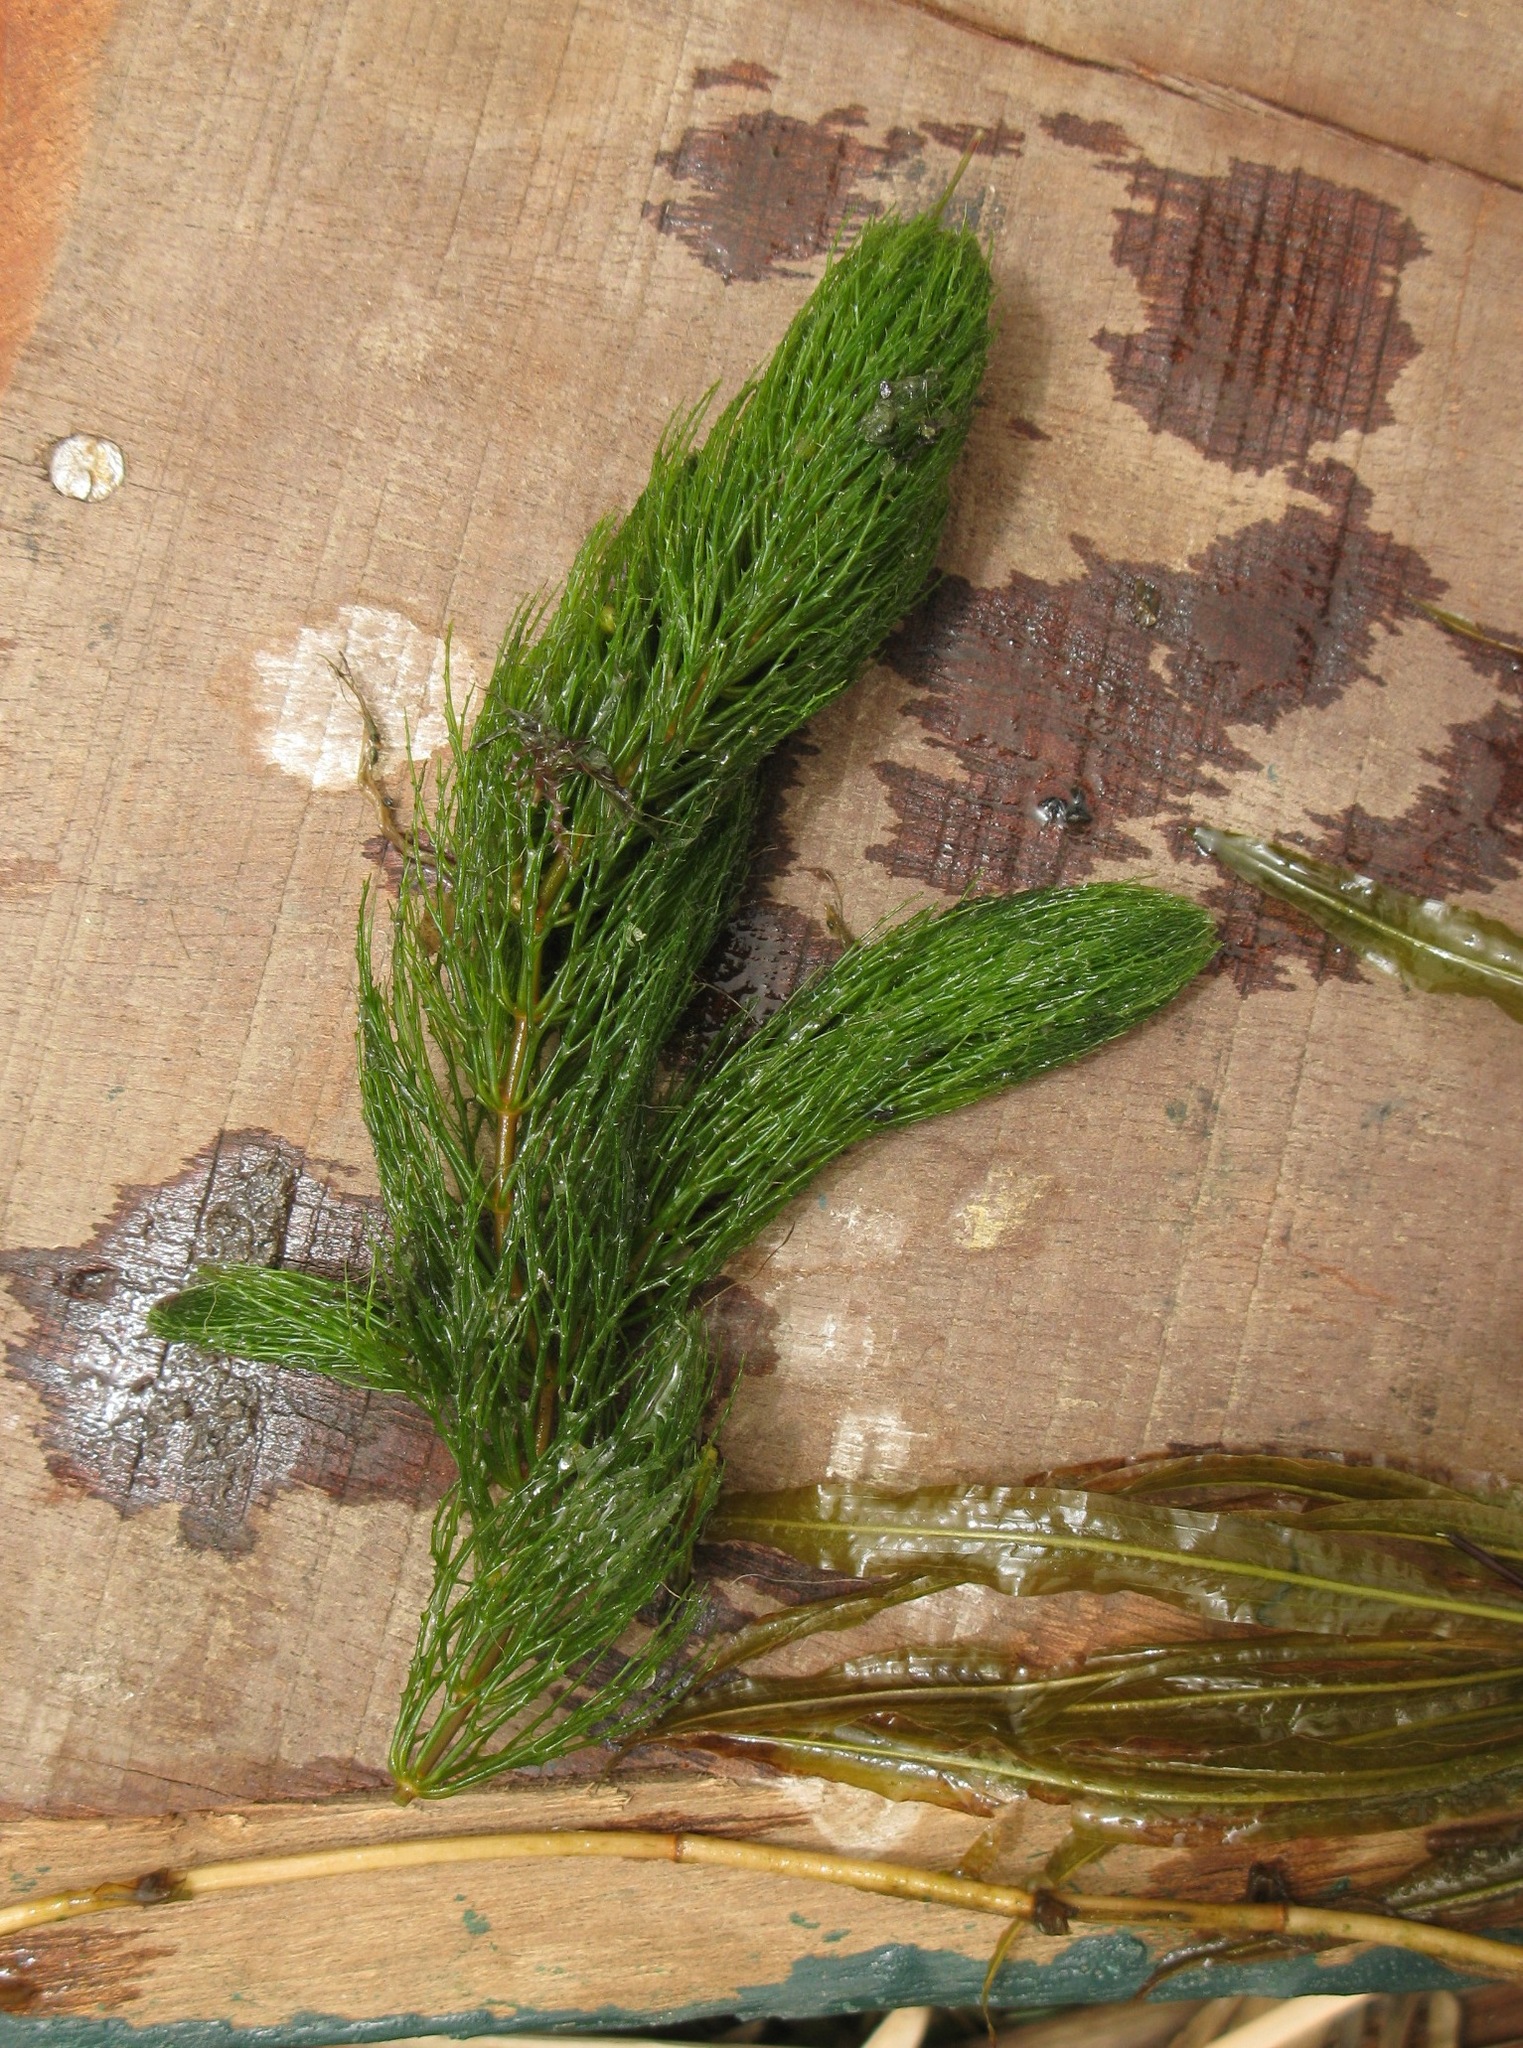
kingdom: Plantae
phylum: Tracheophyta
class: Magnoliopsida
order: Ceratophyllales
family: Ceratophyllaceae
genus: Ceratophyllum
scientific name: Ceratophyllum demersum
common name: Rigid hornwort
